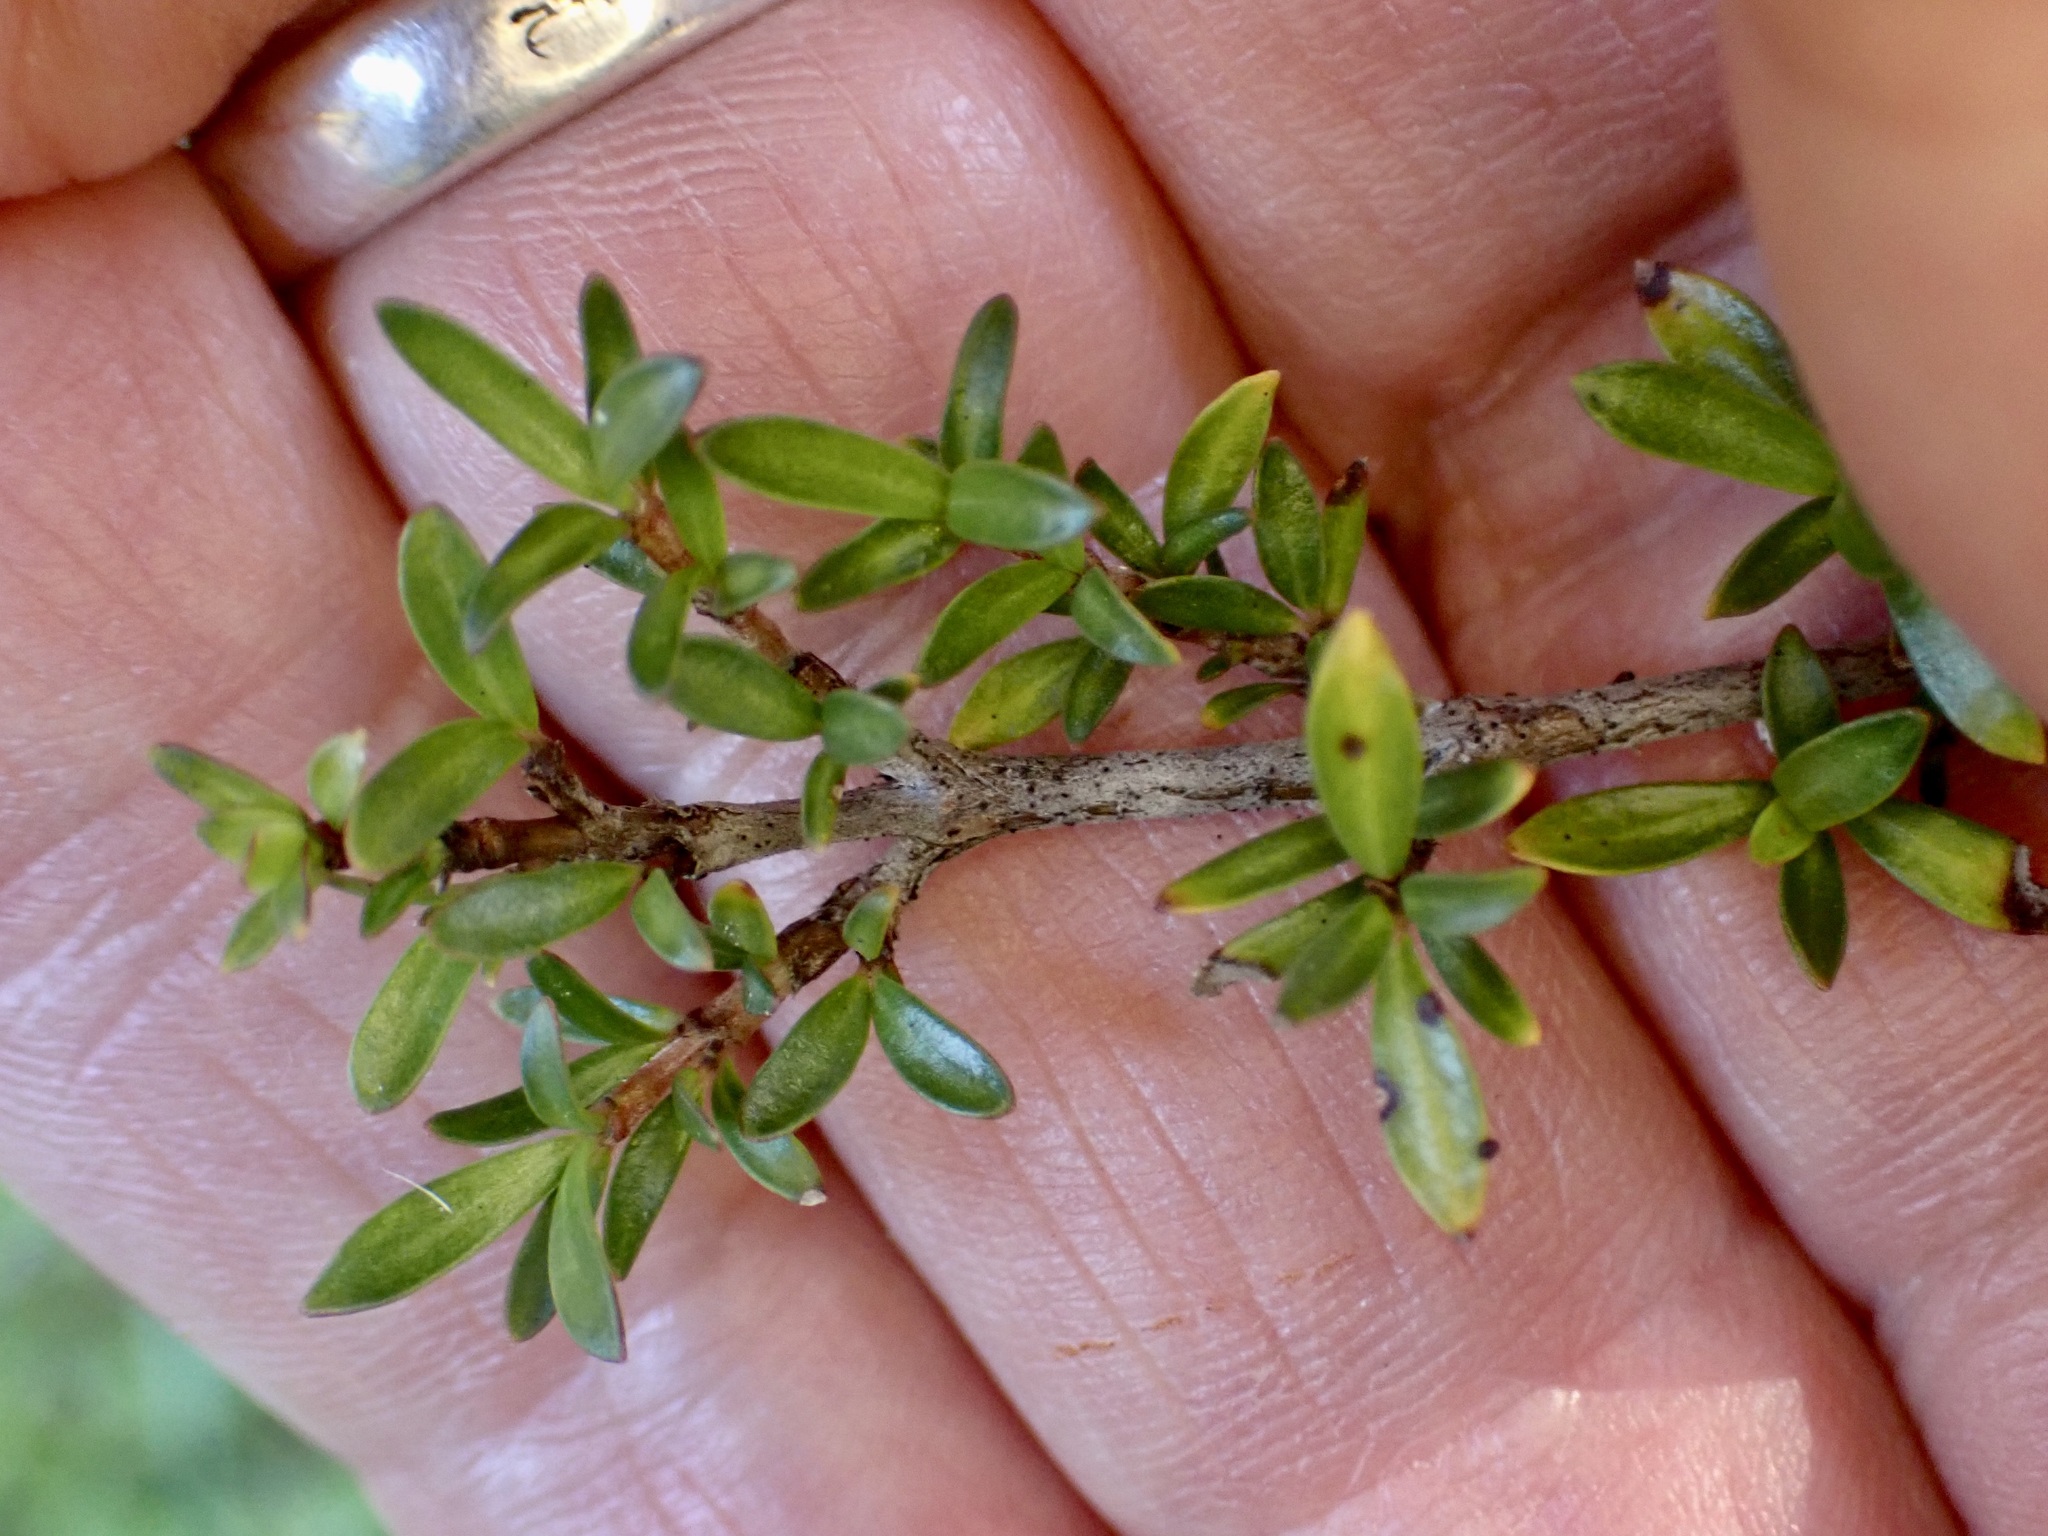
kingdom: Plantae
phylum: Tracheophyta
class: Magnoliopsida
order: Gentianales
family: Rubiaceae
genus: Coprosma
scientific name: Coprosma propinqua
